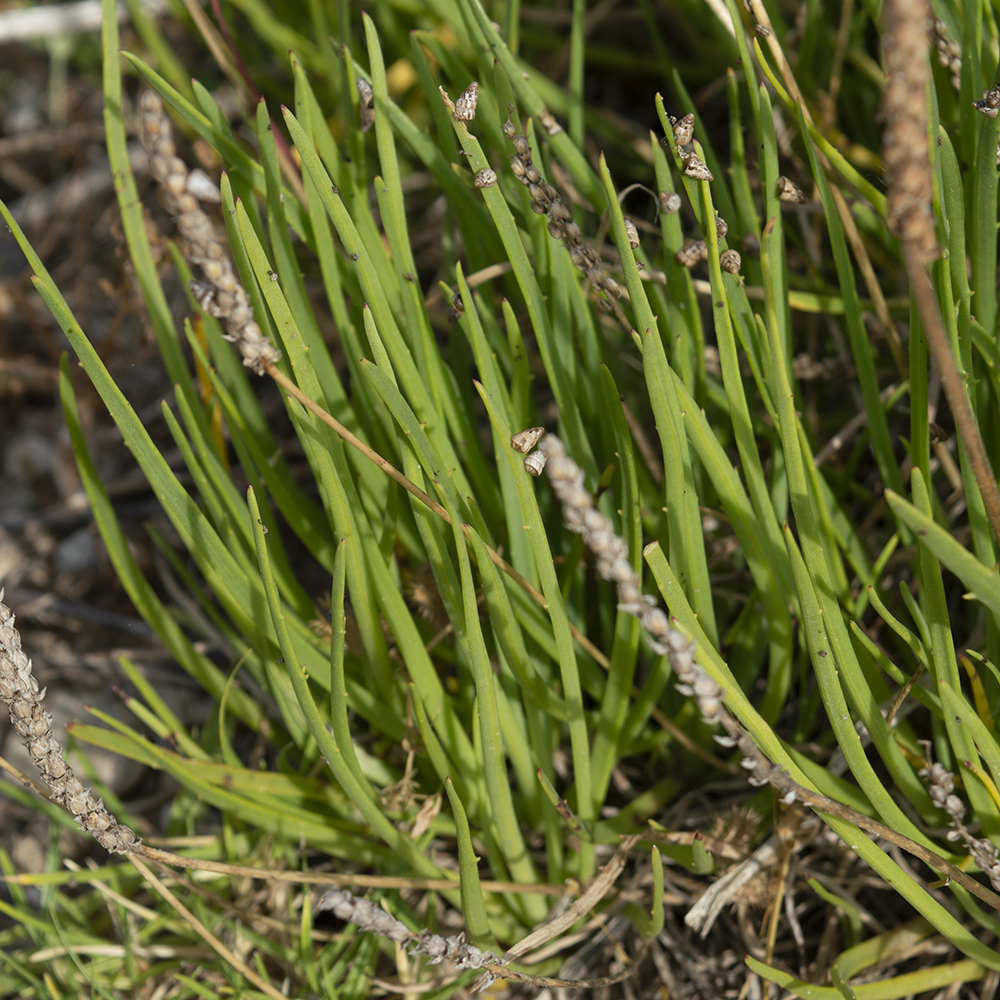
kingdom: Plantae
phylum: Tracheophyta
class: Magnoliopsida
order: Lamiales
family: Plantaginaceae
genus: Plantago
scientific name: Plantago maritima
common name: Sea plantain
